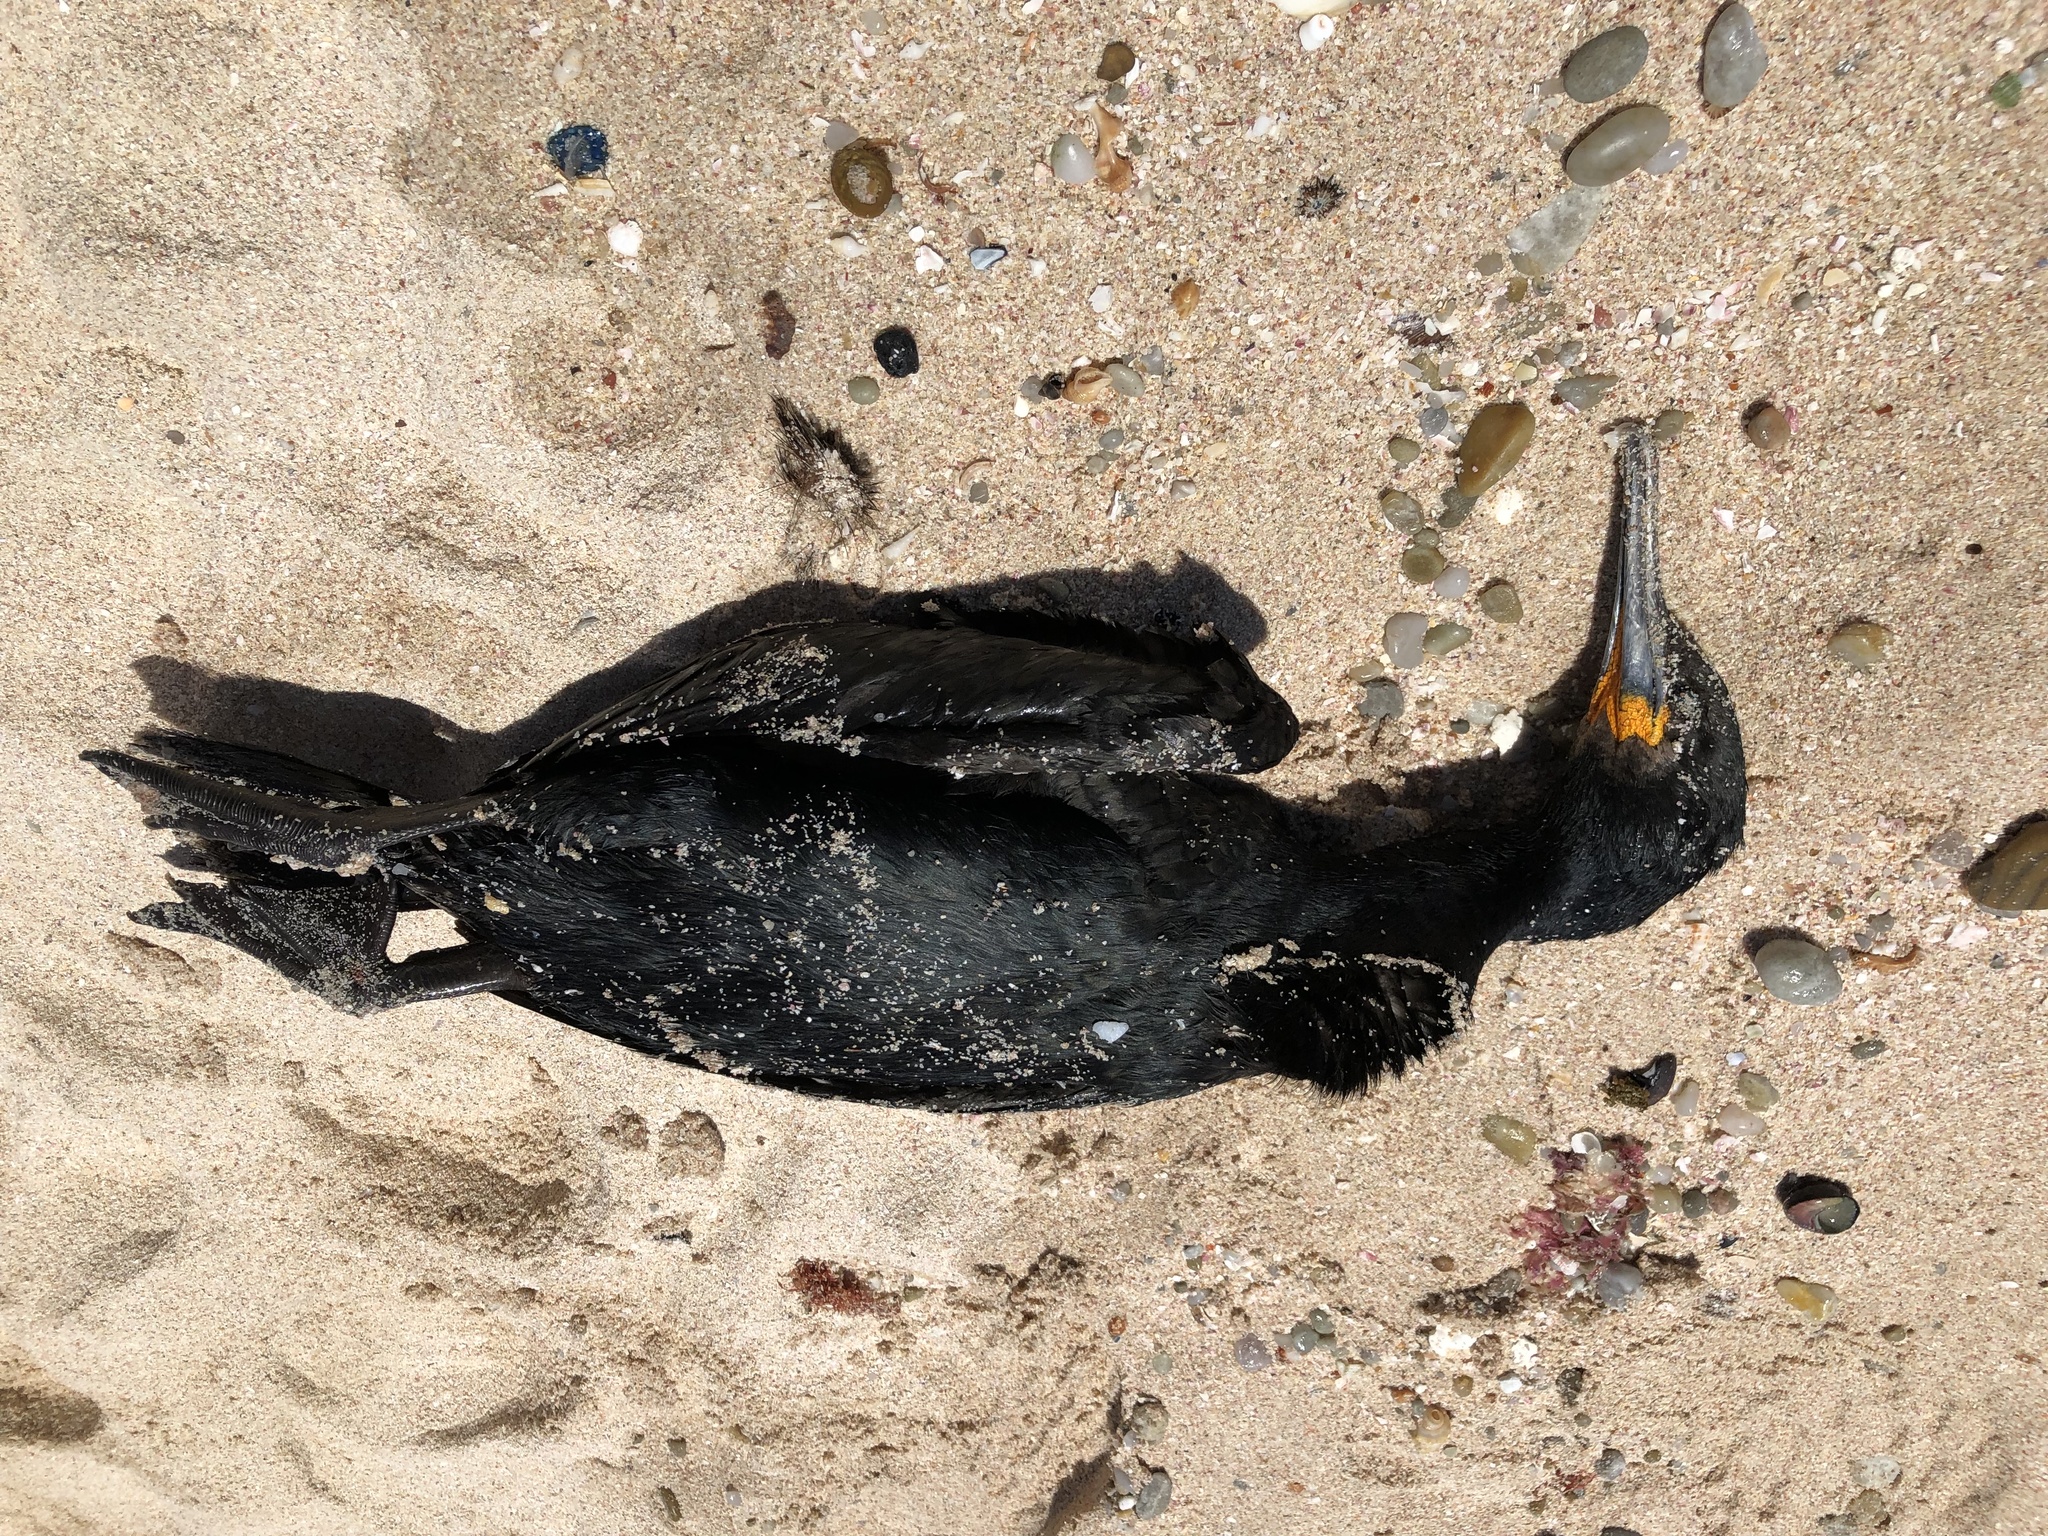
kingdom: Animalia
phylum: Chordata
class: Aves
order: Suliformes
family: Phalacrocoracidae
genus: Phalacrocorax
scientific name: Phalacrocorax capensis
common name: Cape cormorant
